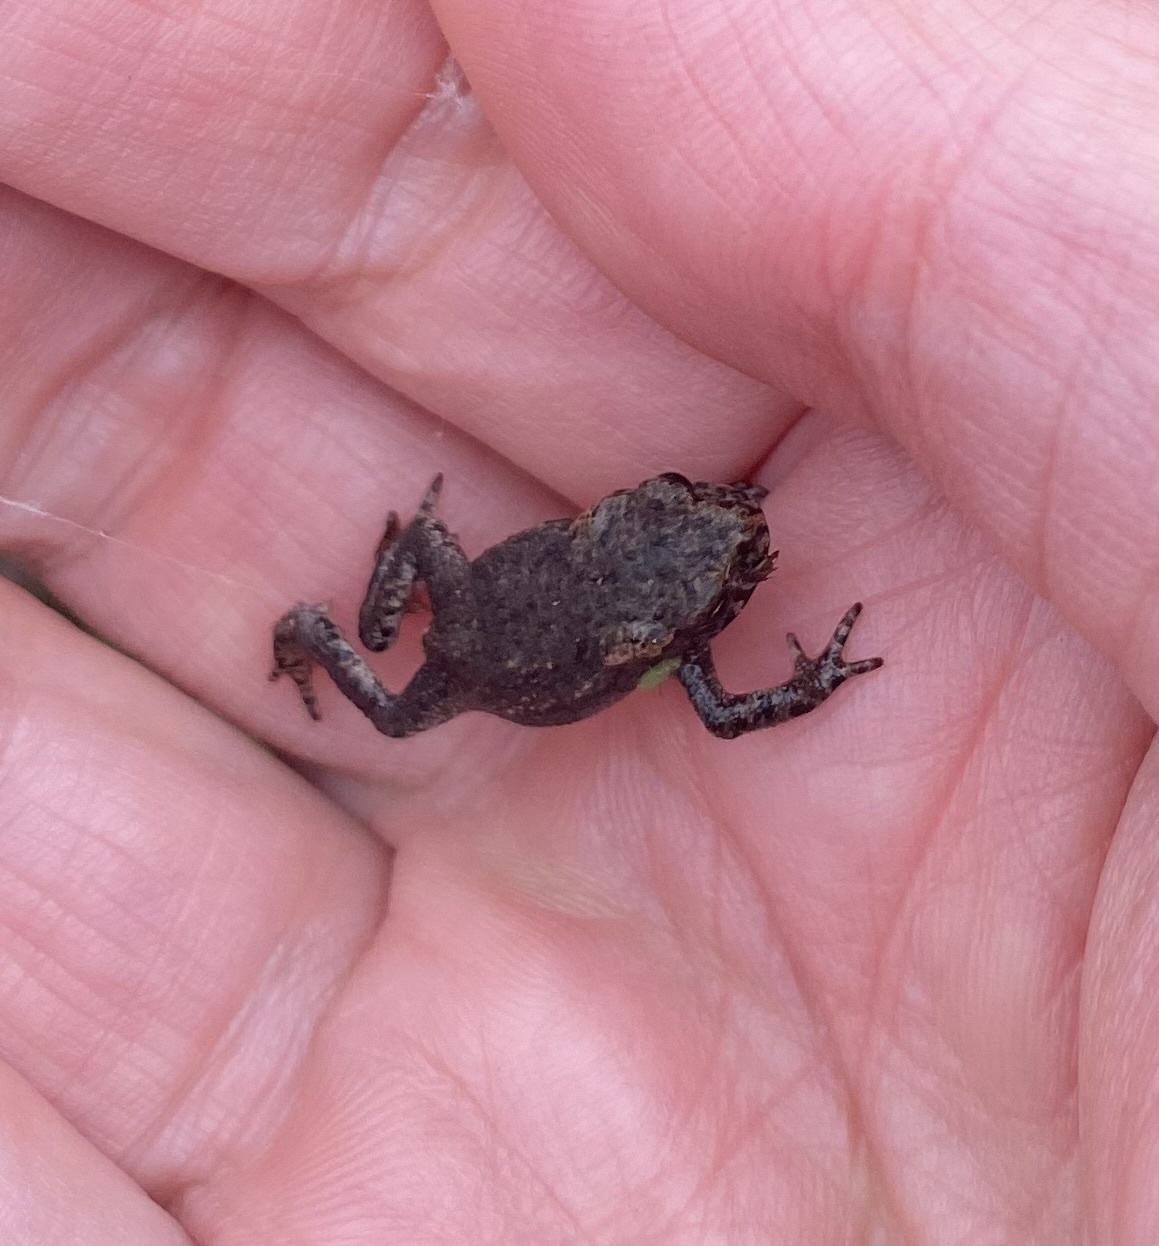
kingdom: Animalia
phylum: Chordata
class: Amphibia
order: Anura
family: Bufonidae
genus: Bufo
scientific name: Bufo bufo
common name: Common toad
